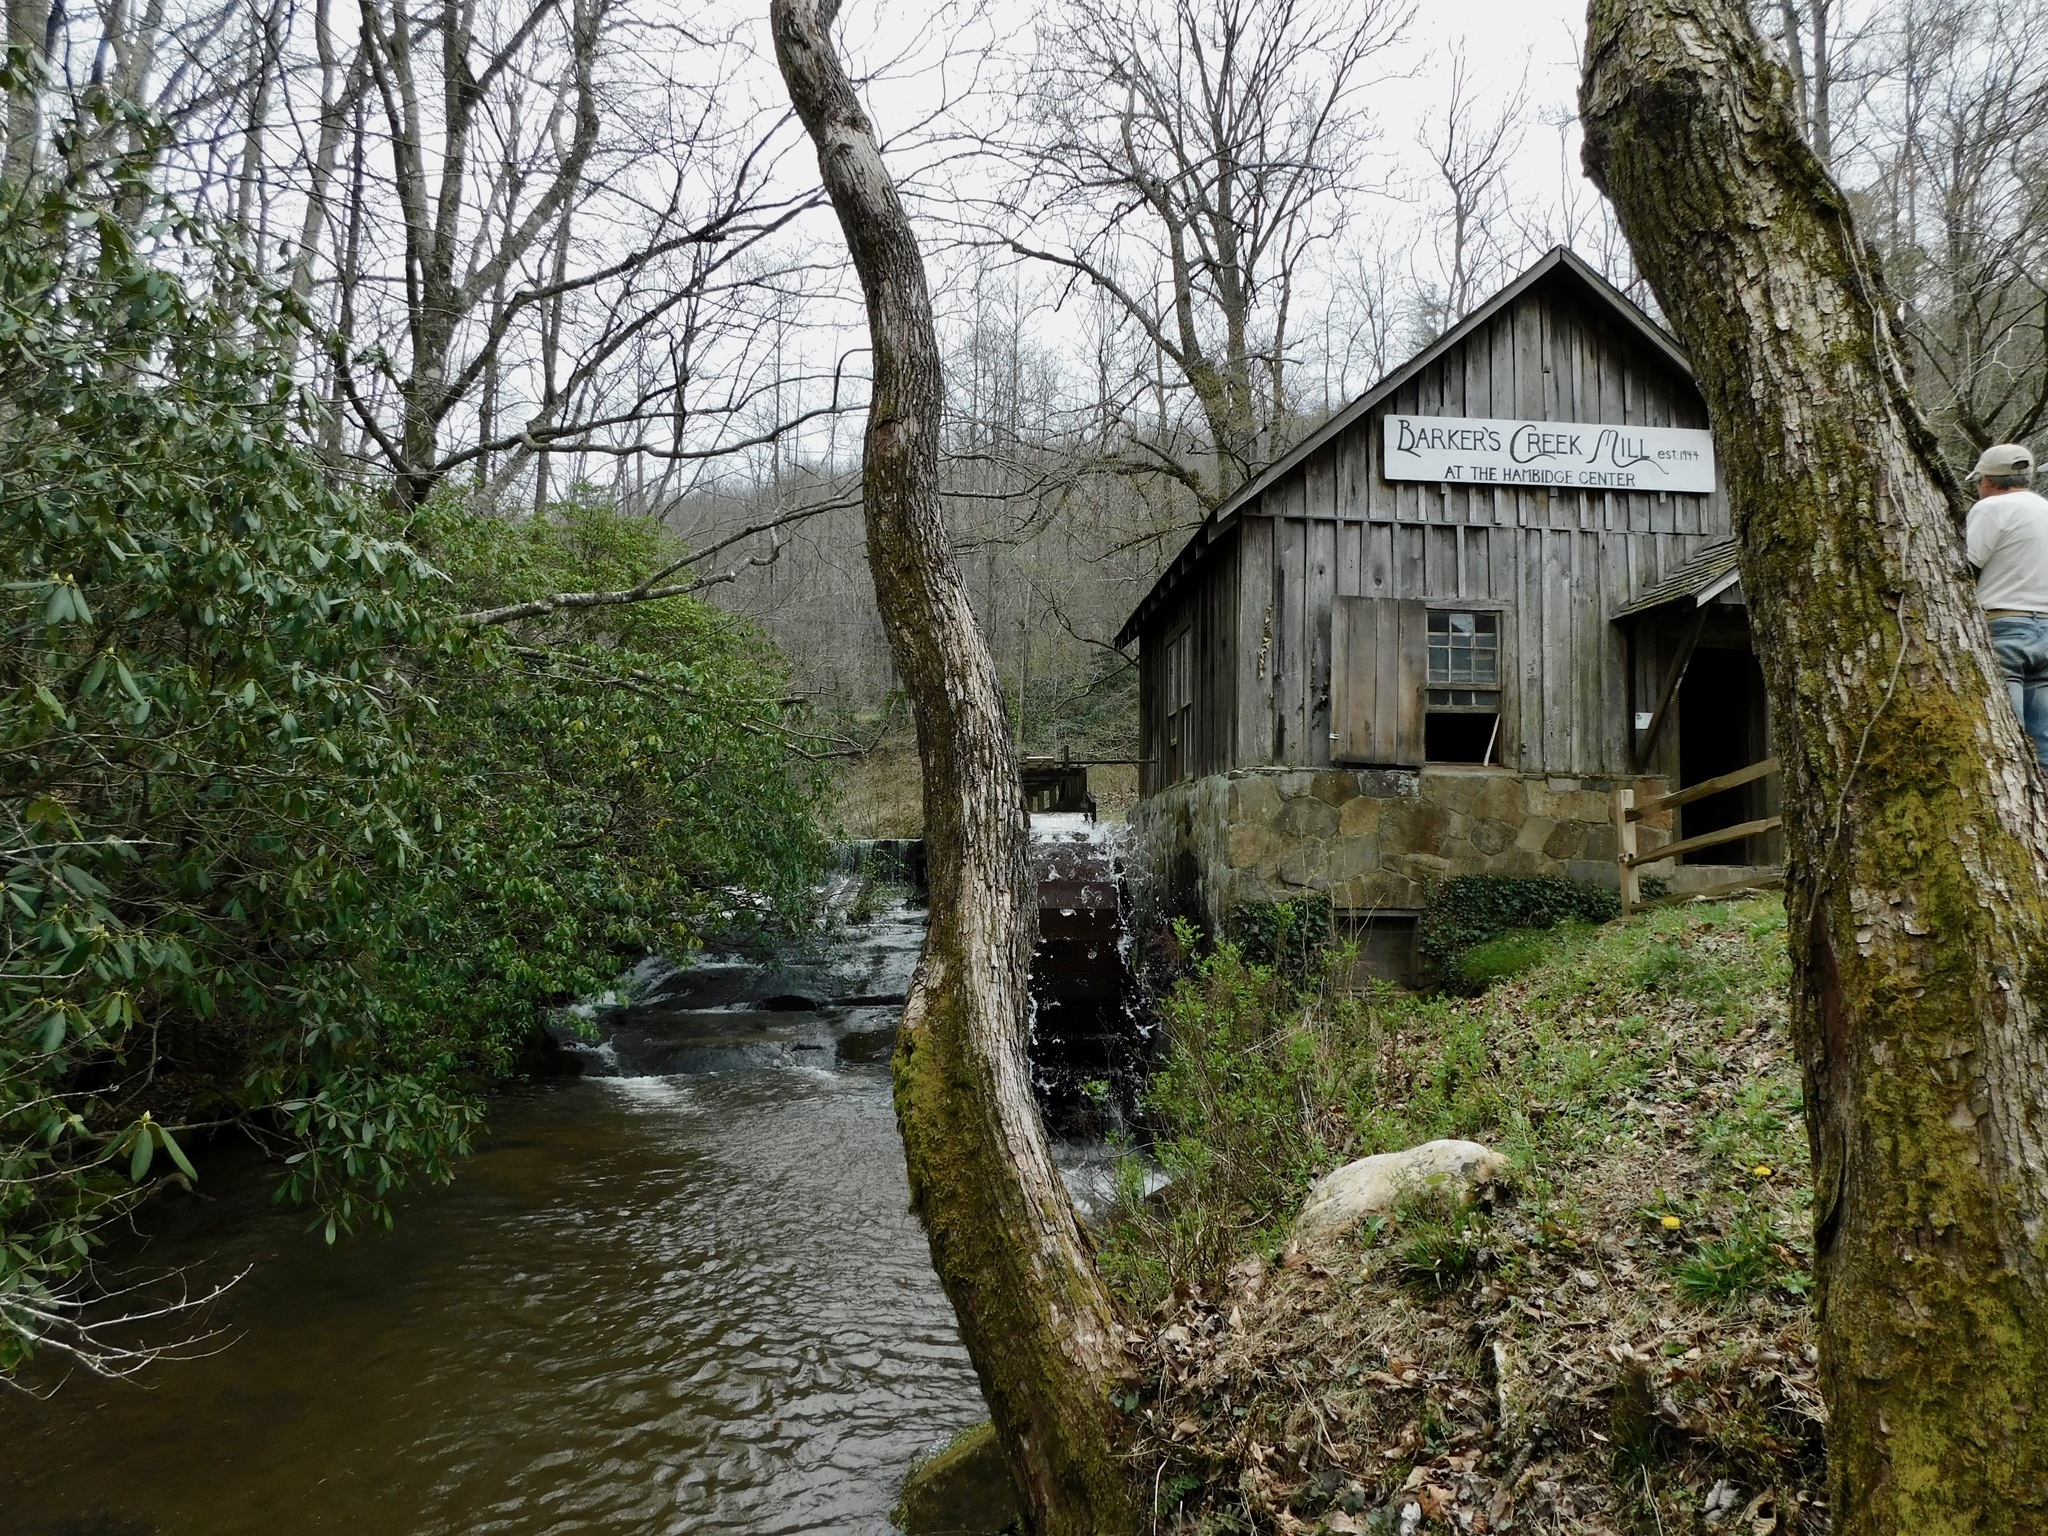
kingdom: Plantae
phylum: Tracheophyta
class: Magnoliopsida
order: Gentianales
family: Rubiaceae
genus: Houstonia
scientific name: Houstonia serpyllifolia
